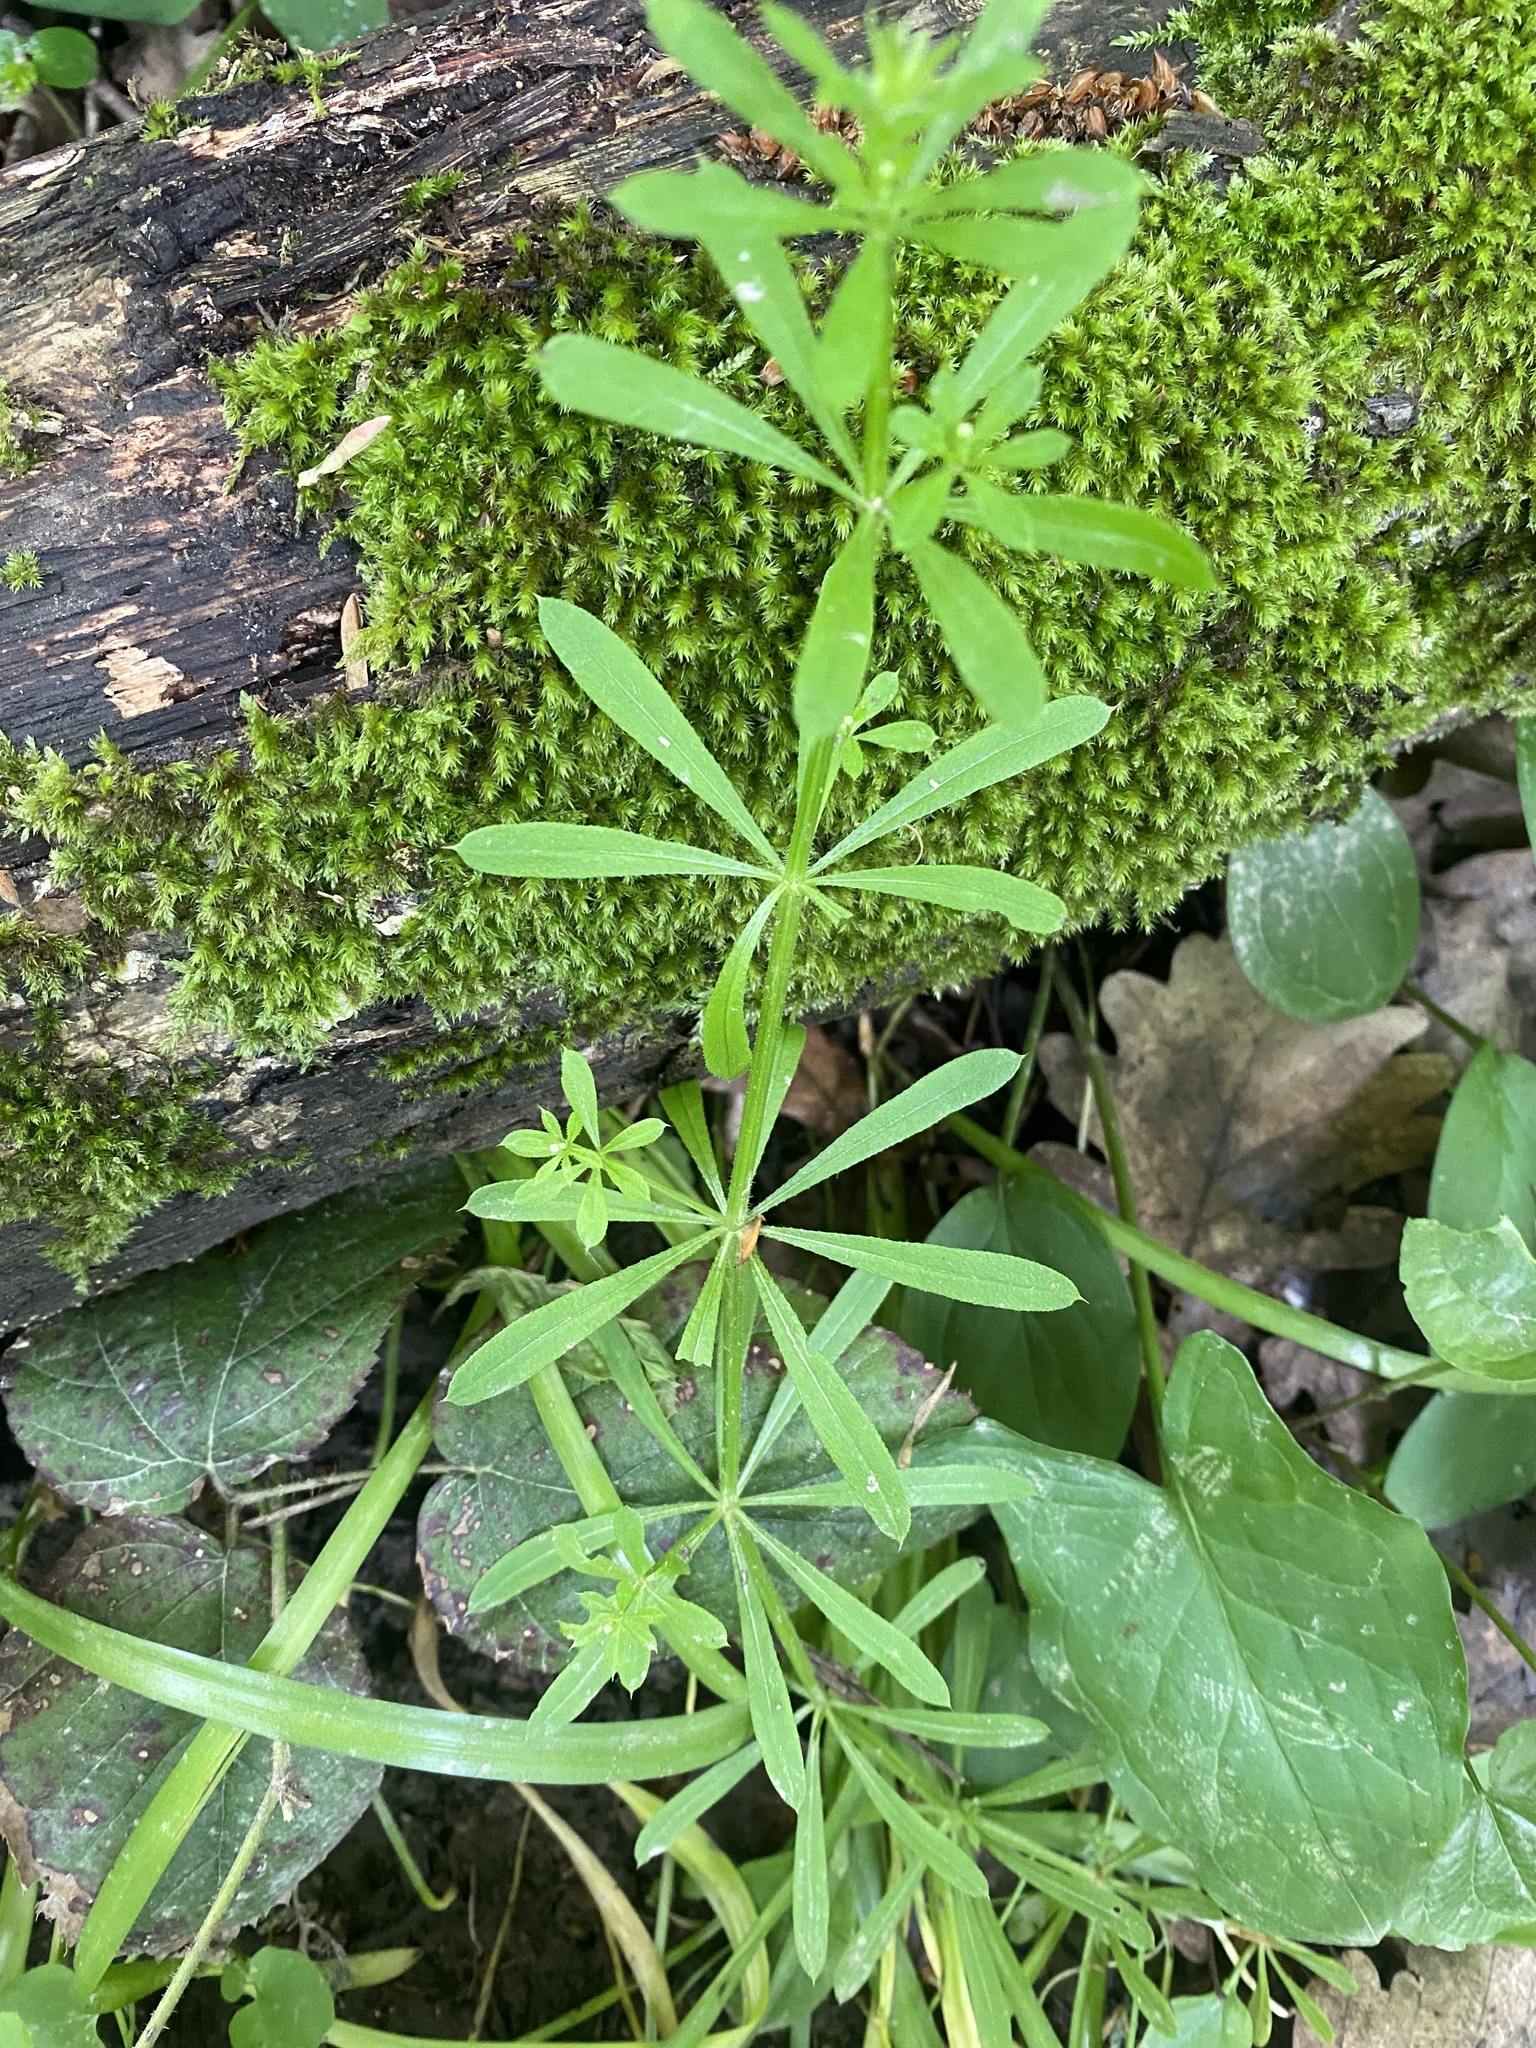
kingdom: Plantae
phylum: Tracheophyta
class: Magnoliopsida
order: Gentianales
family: Rubiaceae
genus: Galium
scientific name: Galium aparine
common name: Cleavers
